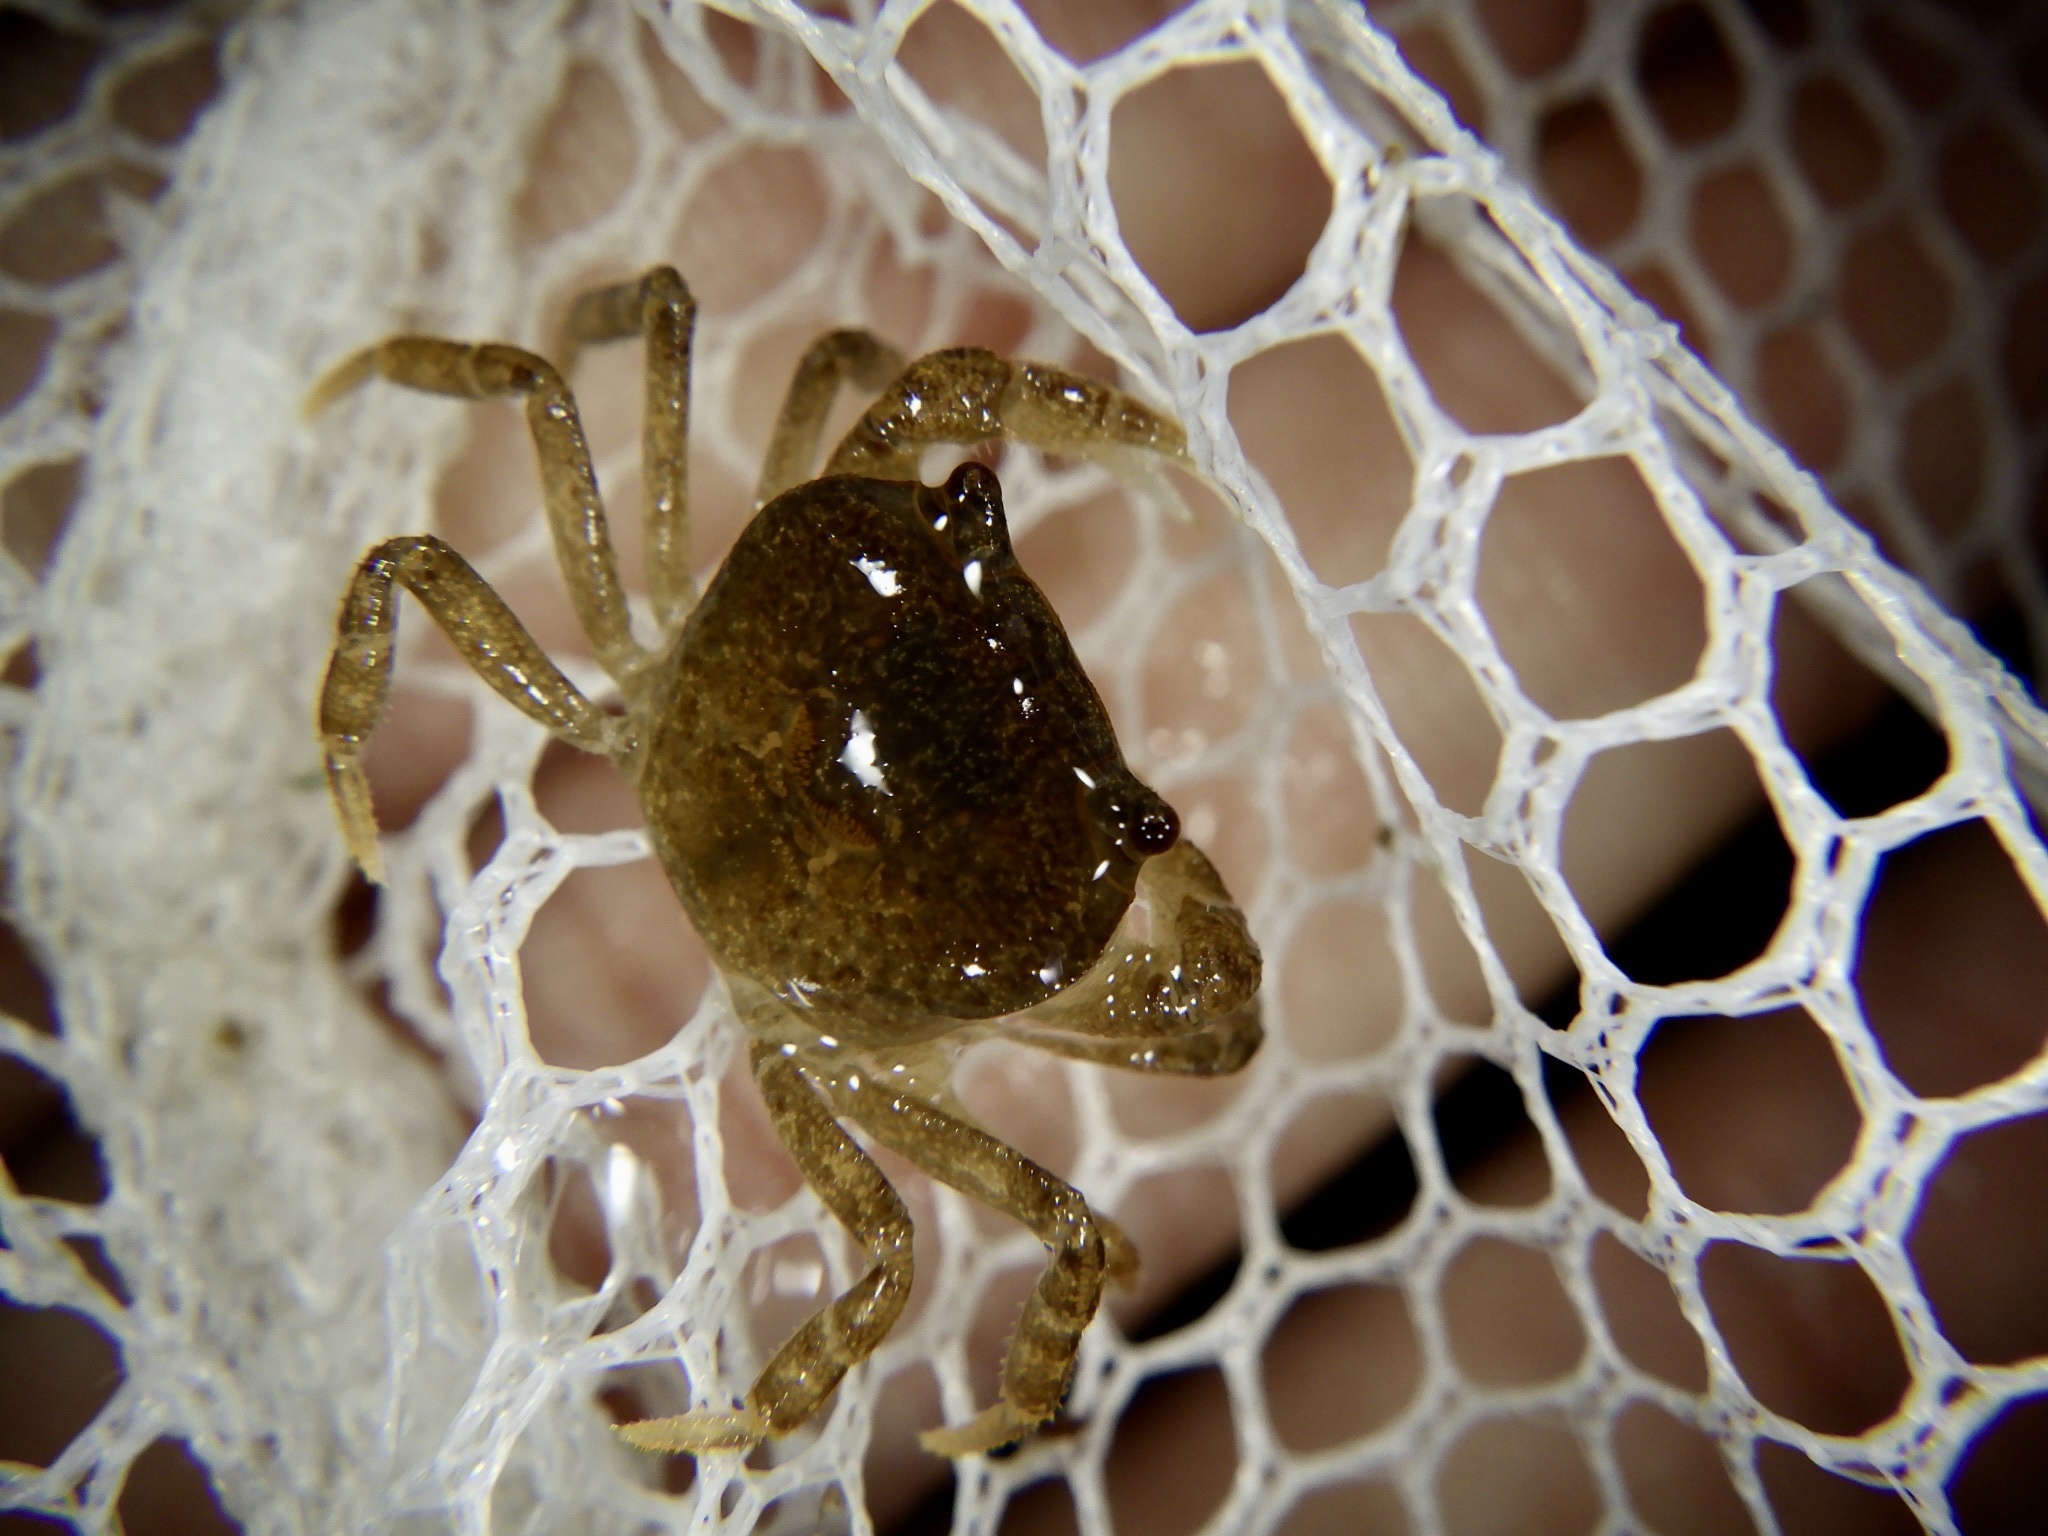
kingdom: Animalia
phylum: Arthropoda
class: Malacostraca
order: Decapoda
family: Potamidae
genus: Geothelphusa
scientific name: Geothelphusa dehaani
